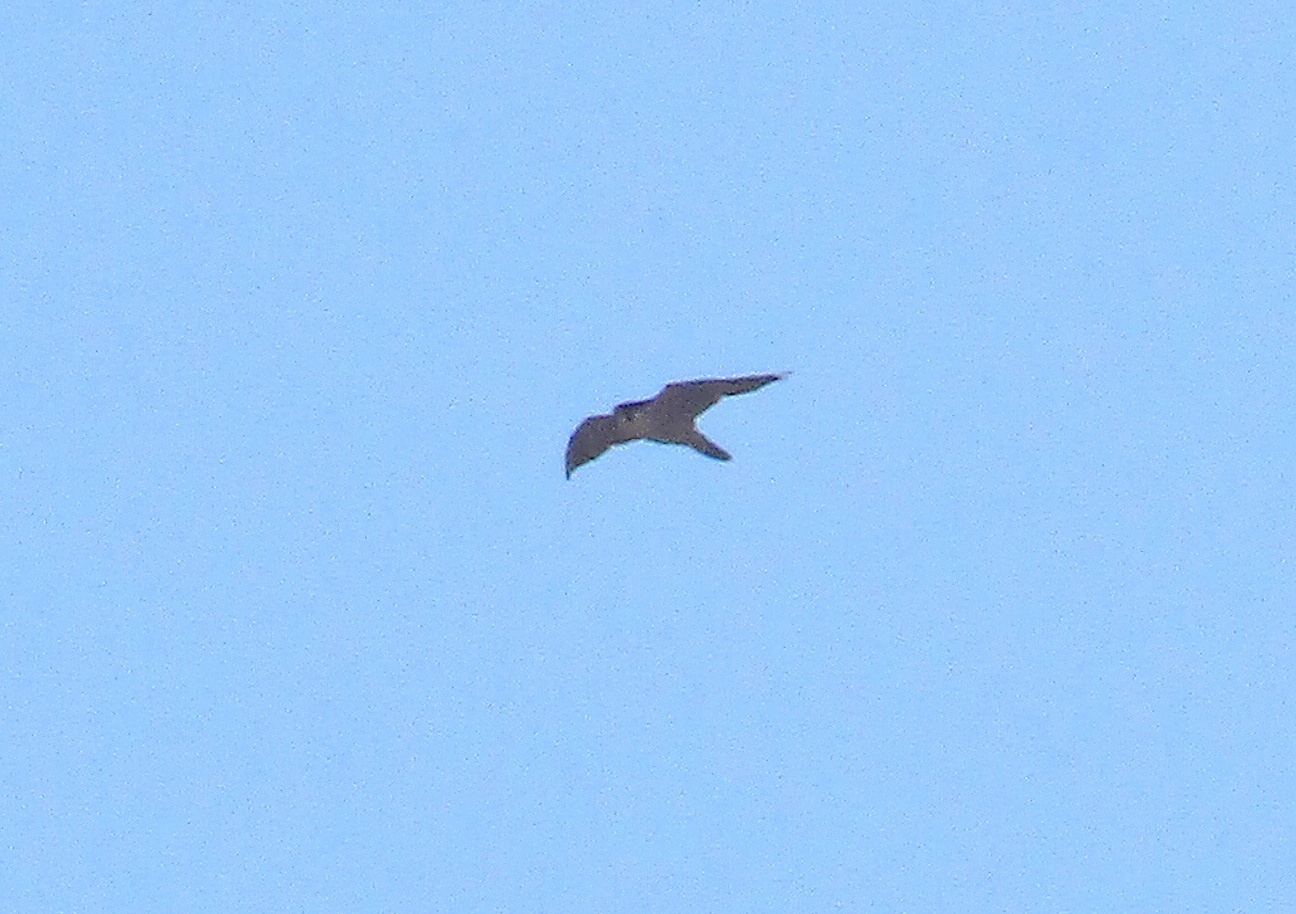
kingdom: Animalia
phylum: Chordata
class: Aves
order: Falconiformes
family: Falconidae
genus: Falco
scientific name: Falco peregrinus
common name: Peregrine falcon
